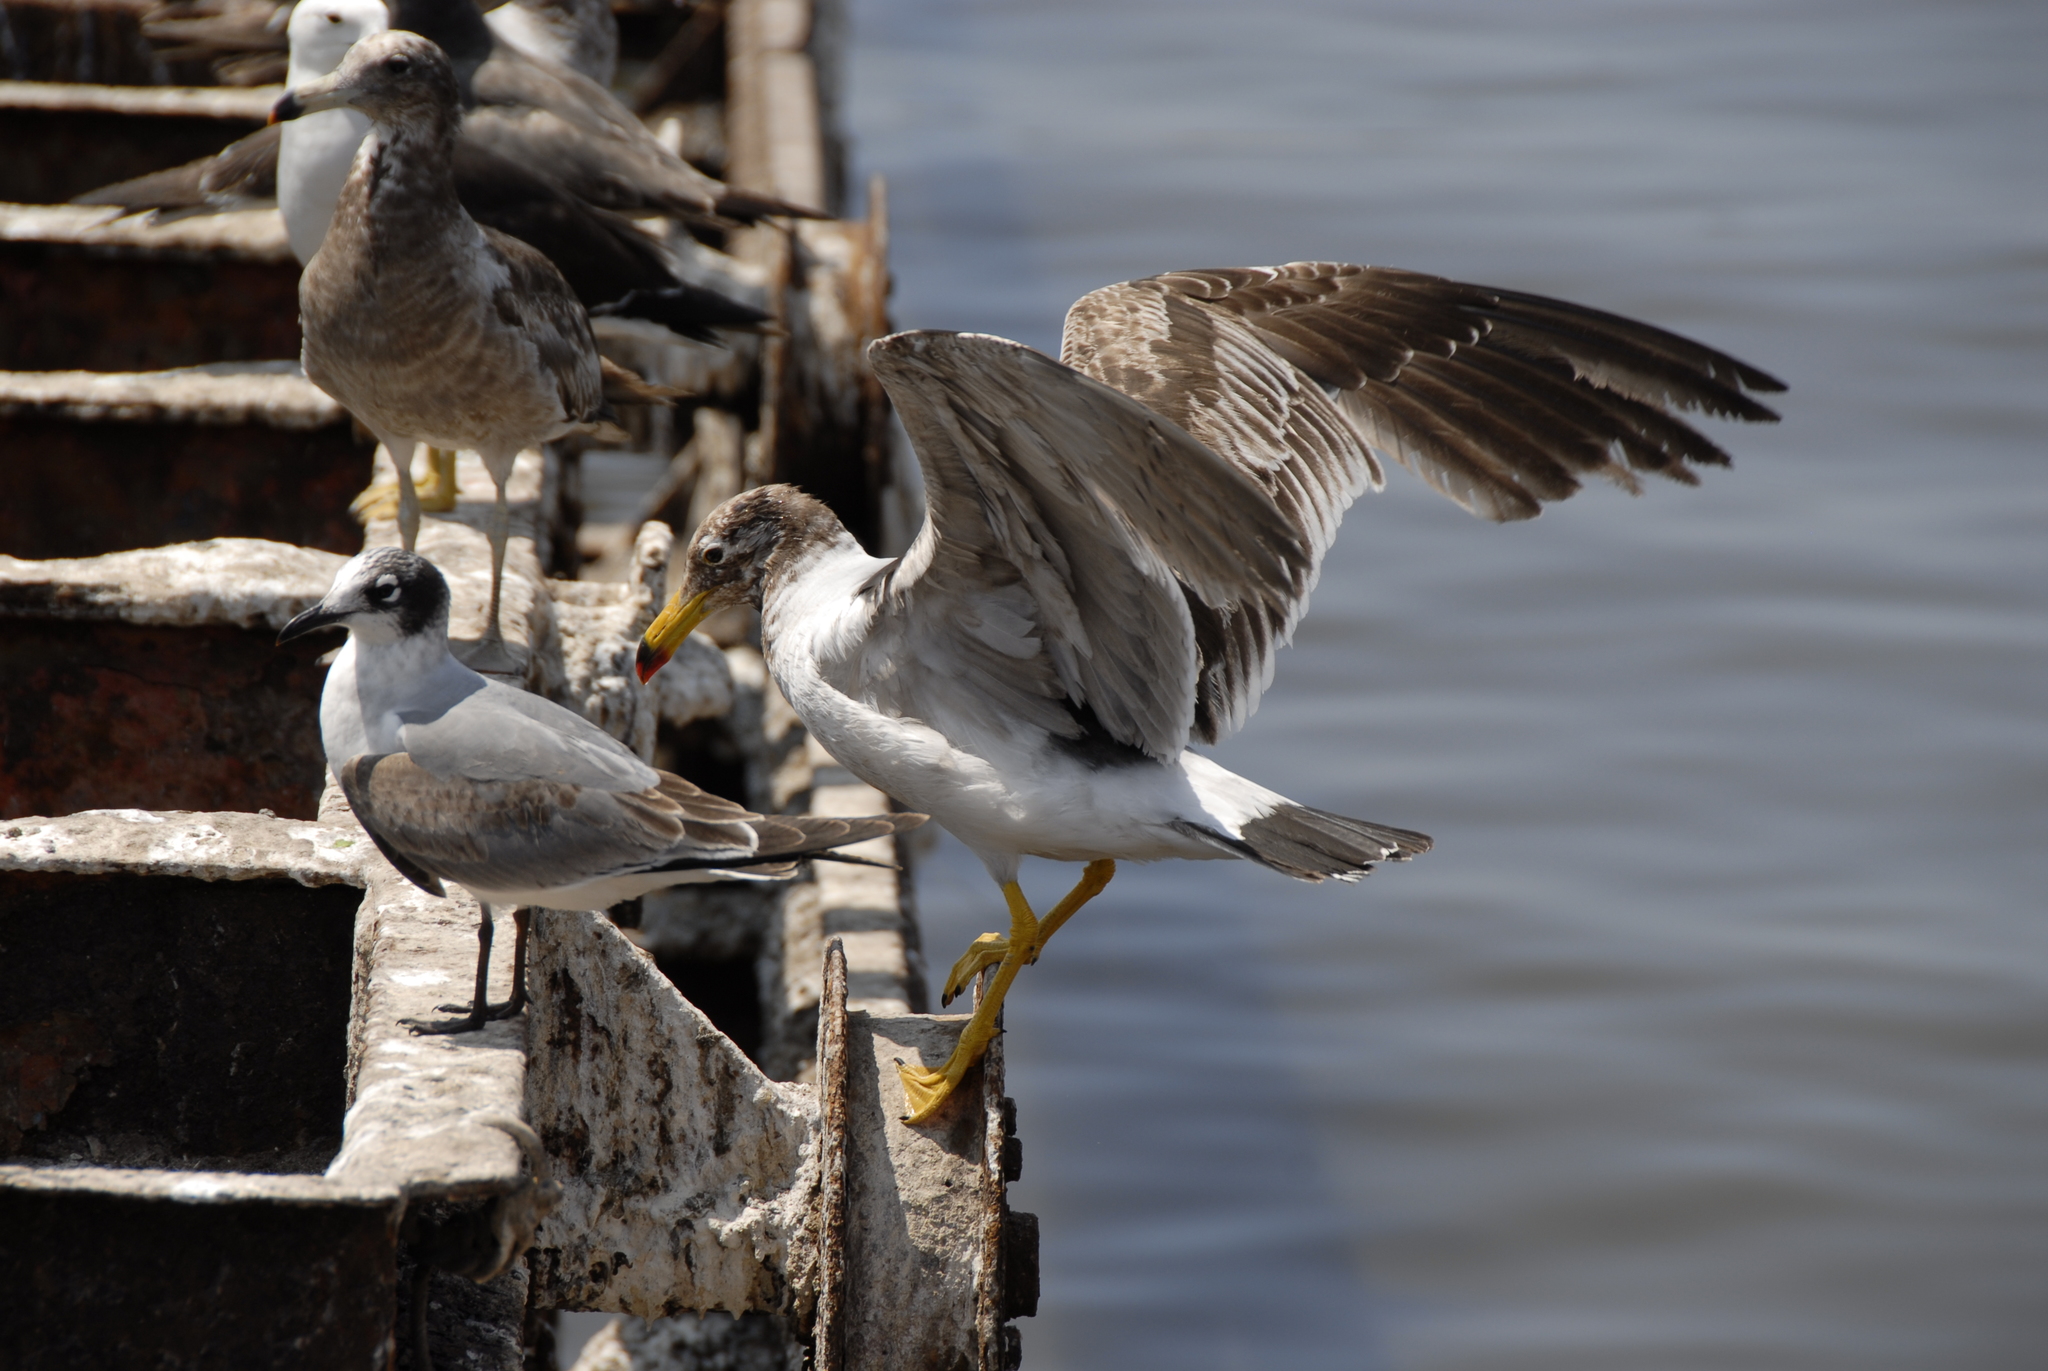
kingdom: Animalia
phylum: Chordata
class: Aves
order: Charadriiformes
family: Laridae
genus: Larus
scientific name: Larus belcheri
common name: Belcher's gull
